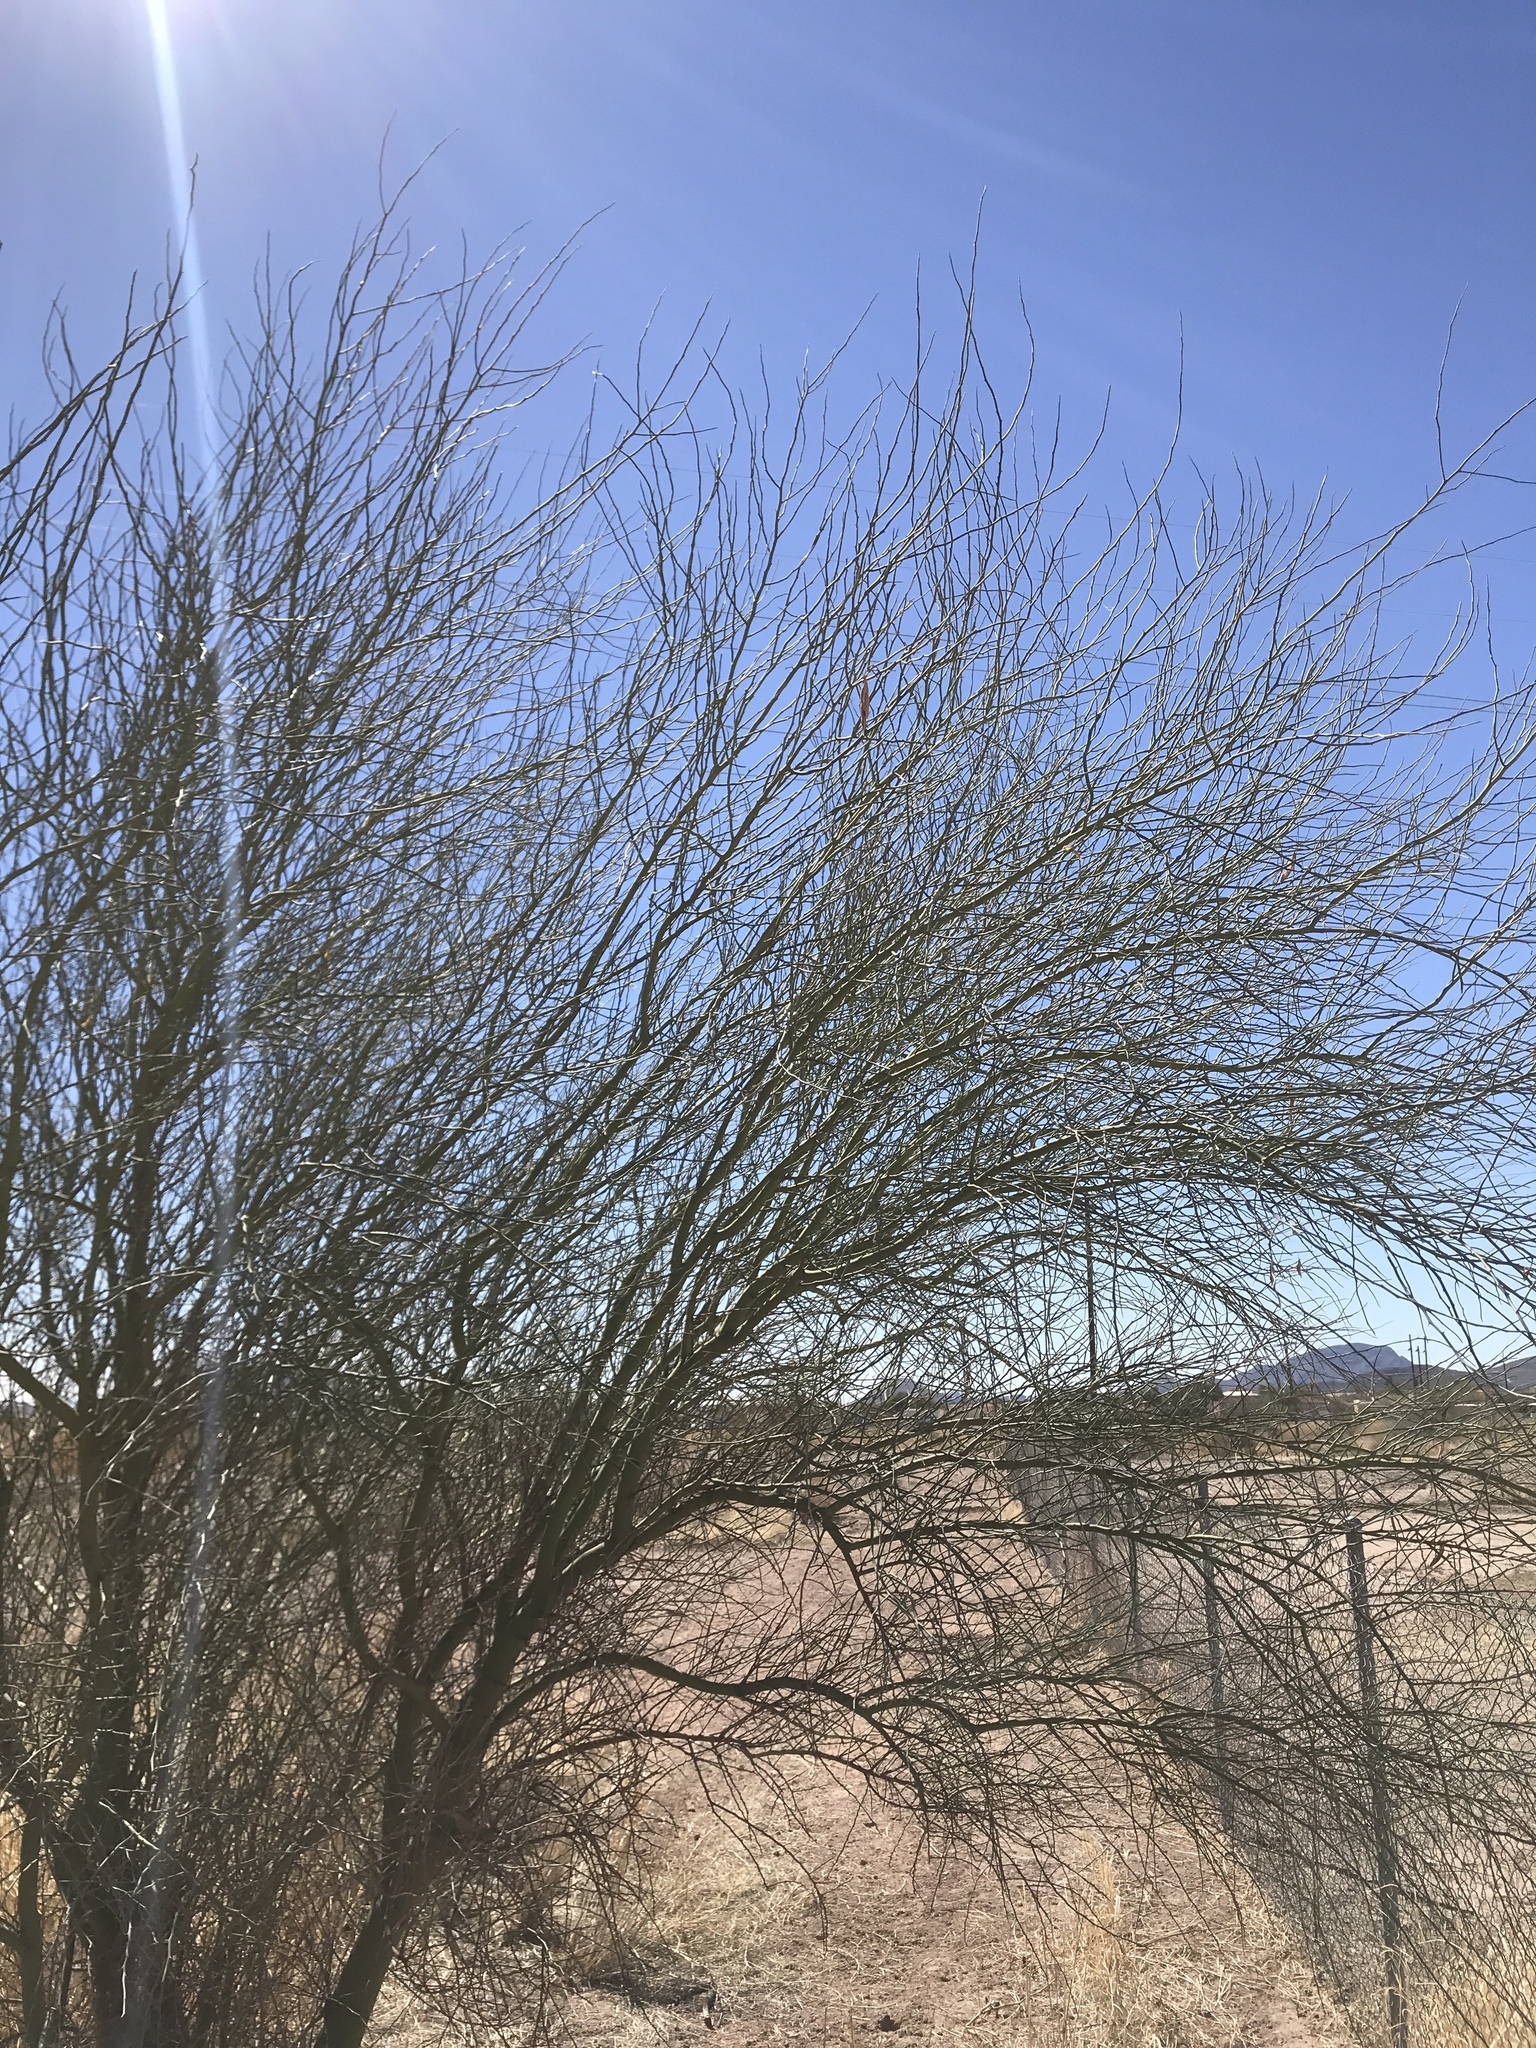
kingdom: Plantae
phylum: Tracheophyta
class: Magnoliopsida
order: Fabales
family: Fabaceae
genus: Parkinsonia
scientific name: Parkinsonia florida
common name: Blue paloverde
